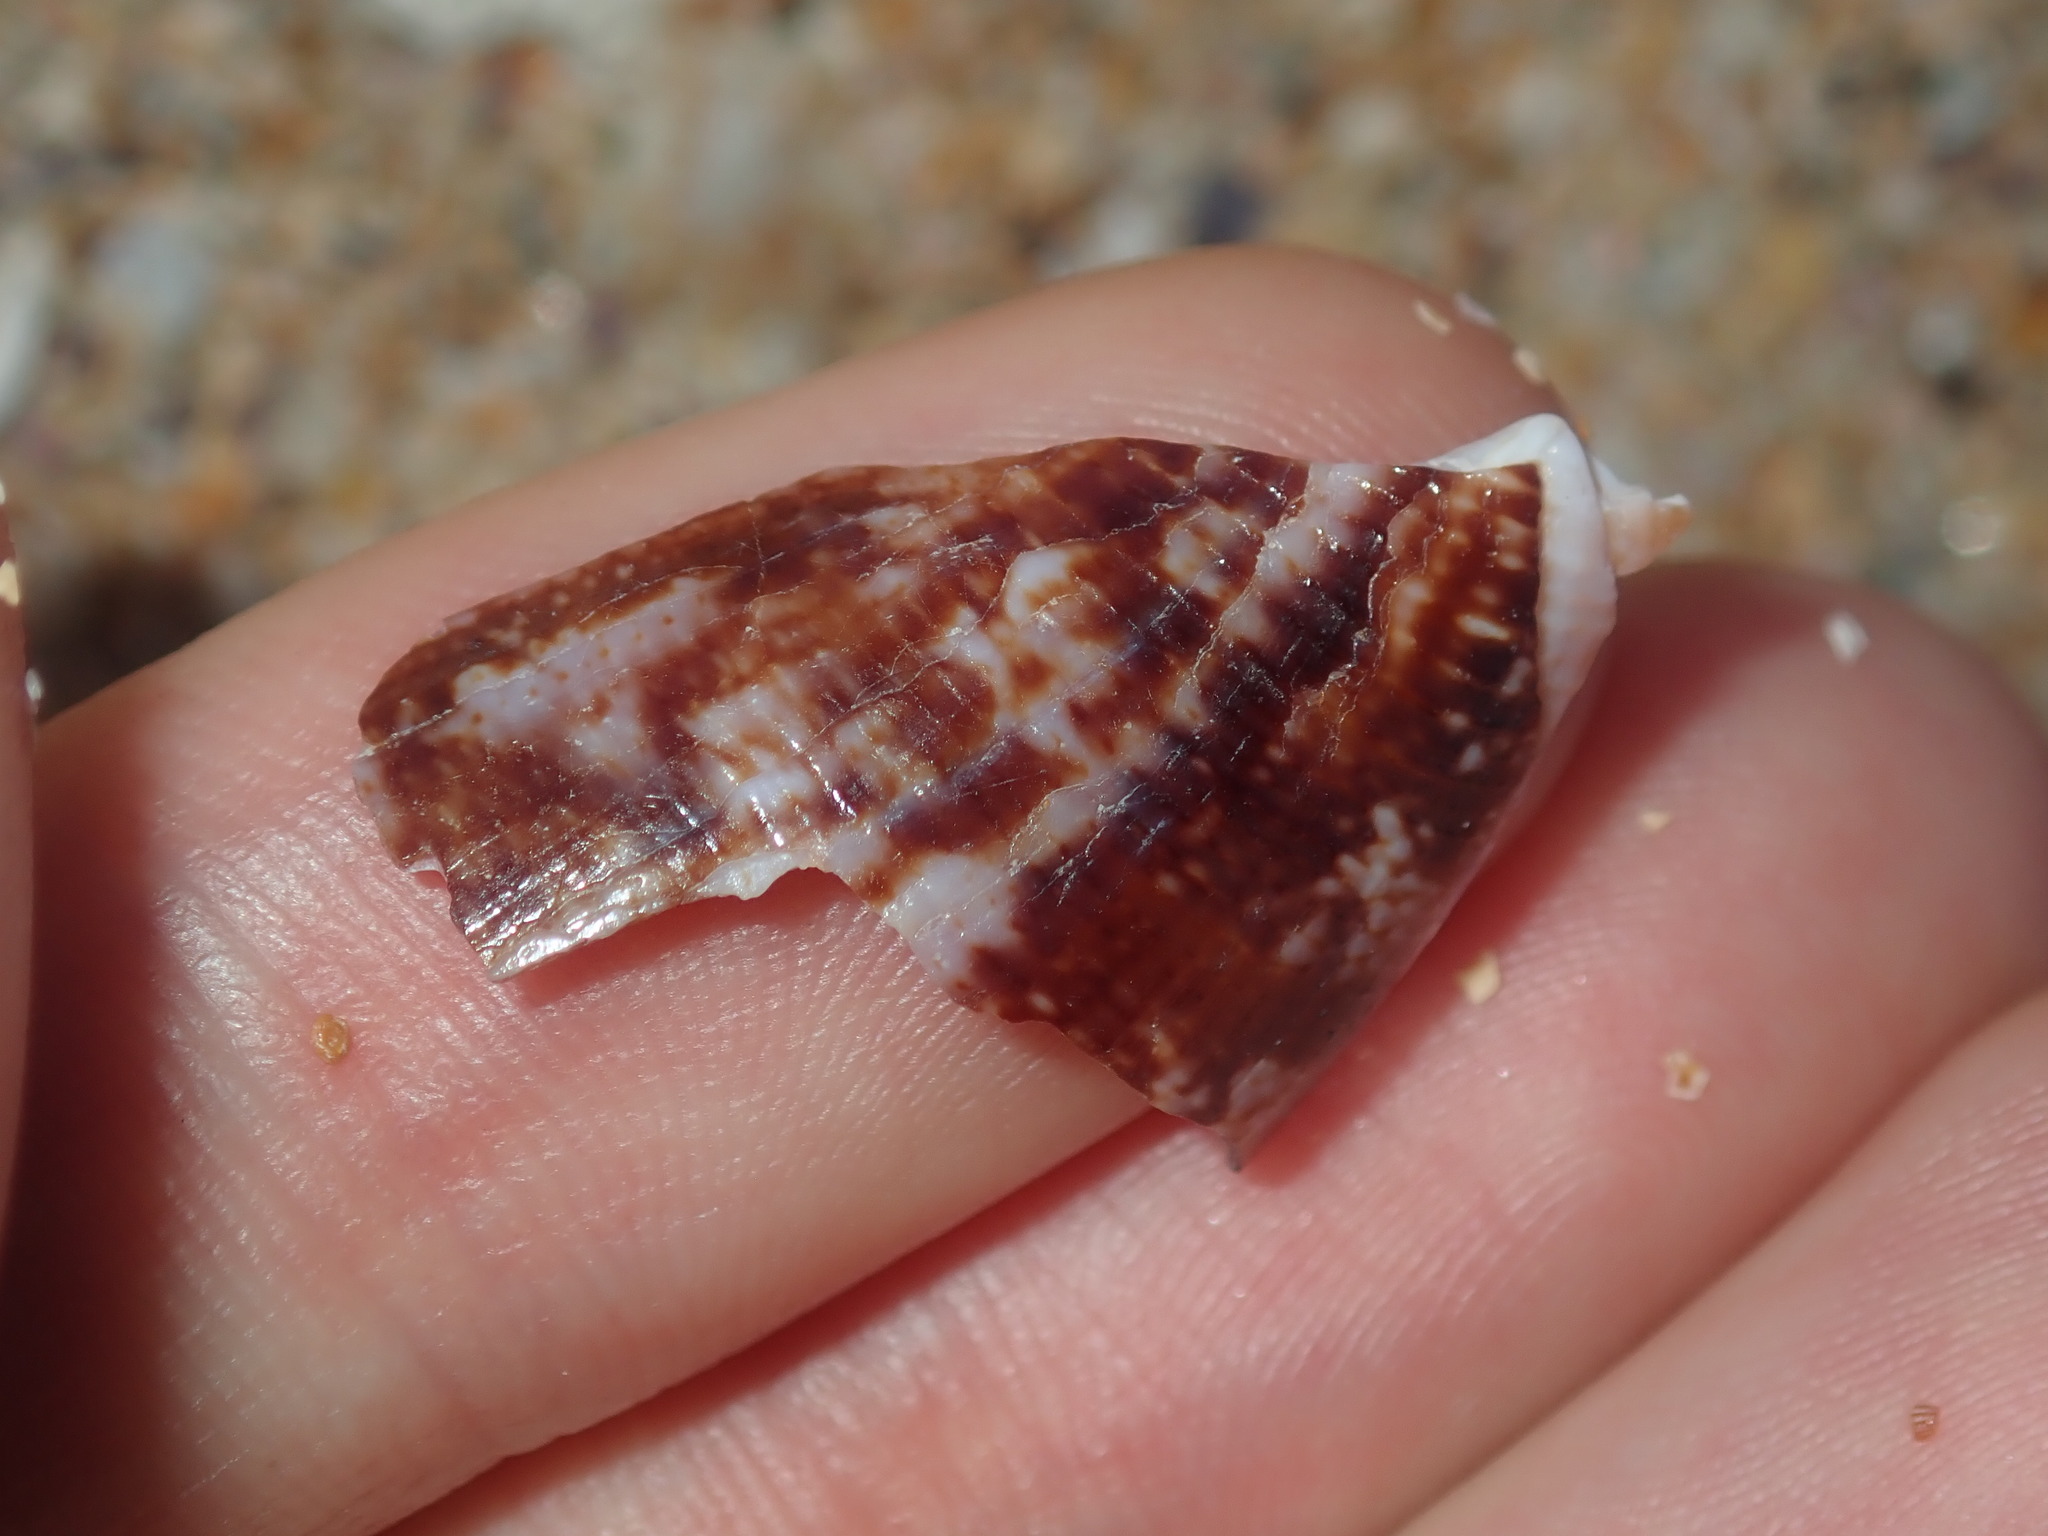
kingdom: Animalia
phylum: Mollusca
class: Gastropoda
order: Neogastropoda
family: Conidae
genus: Conus
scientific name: Conus anemone
